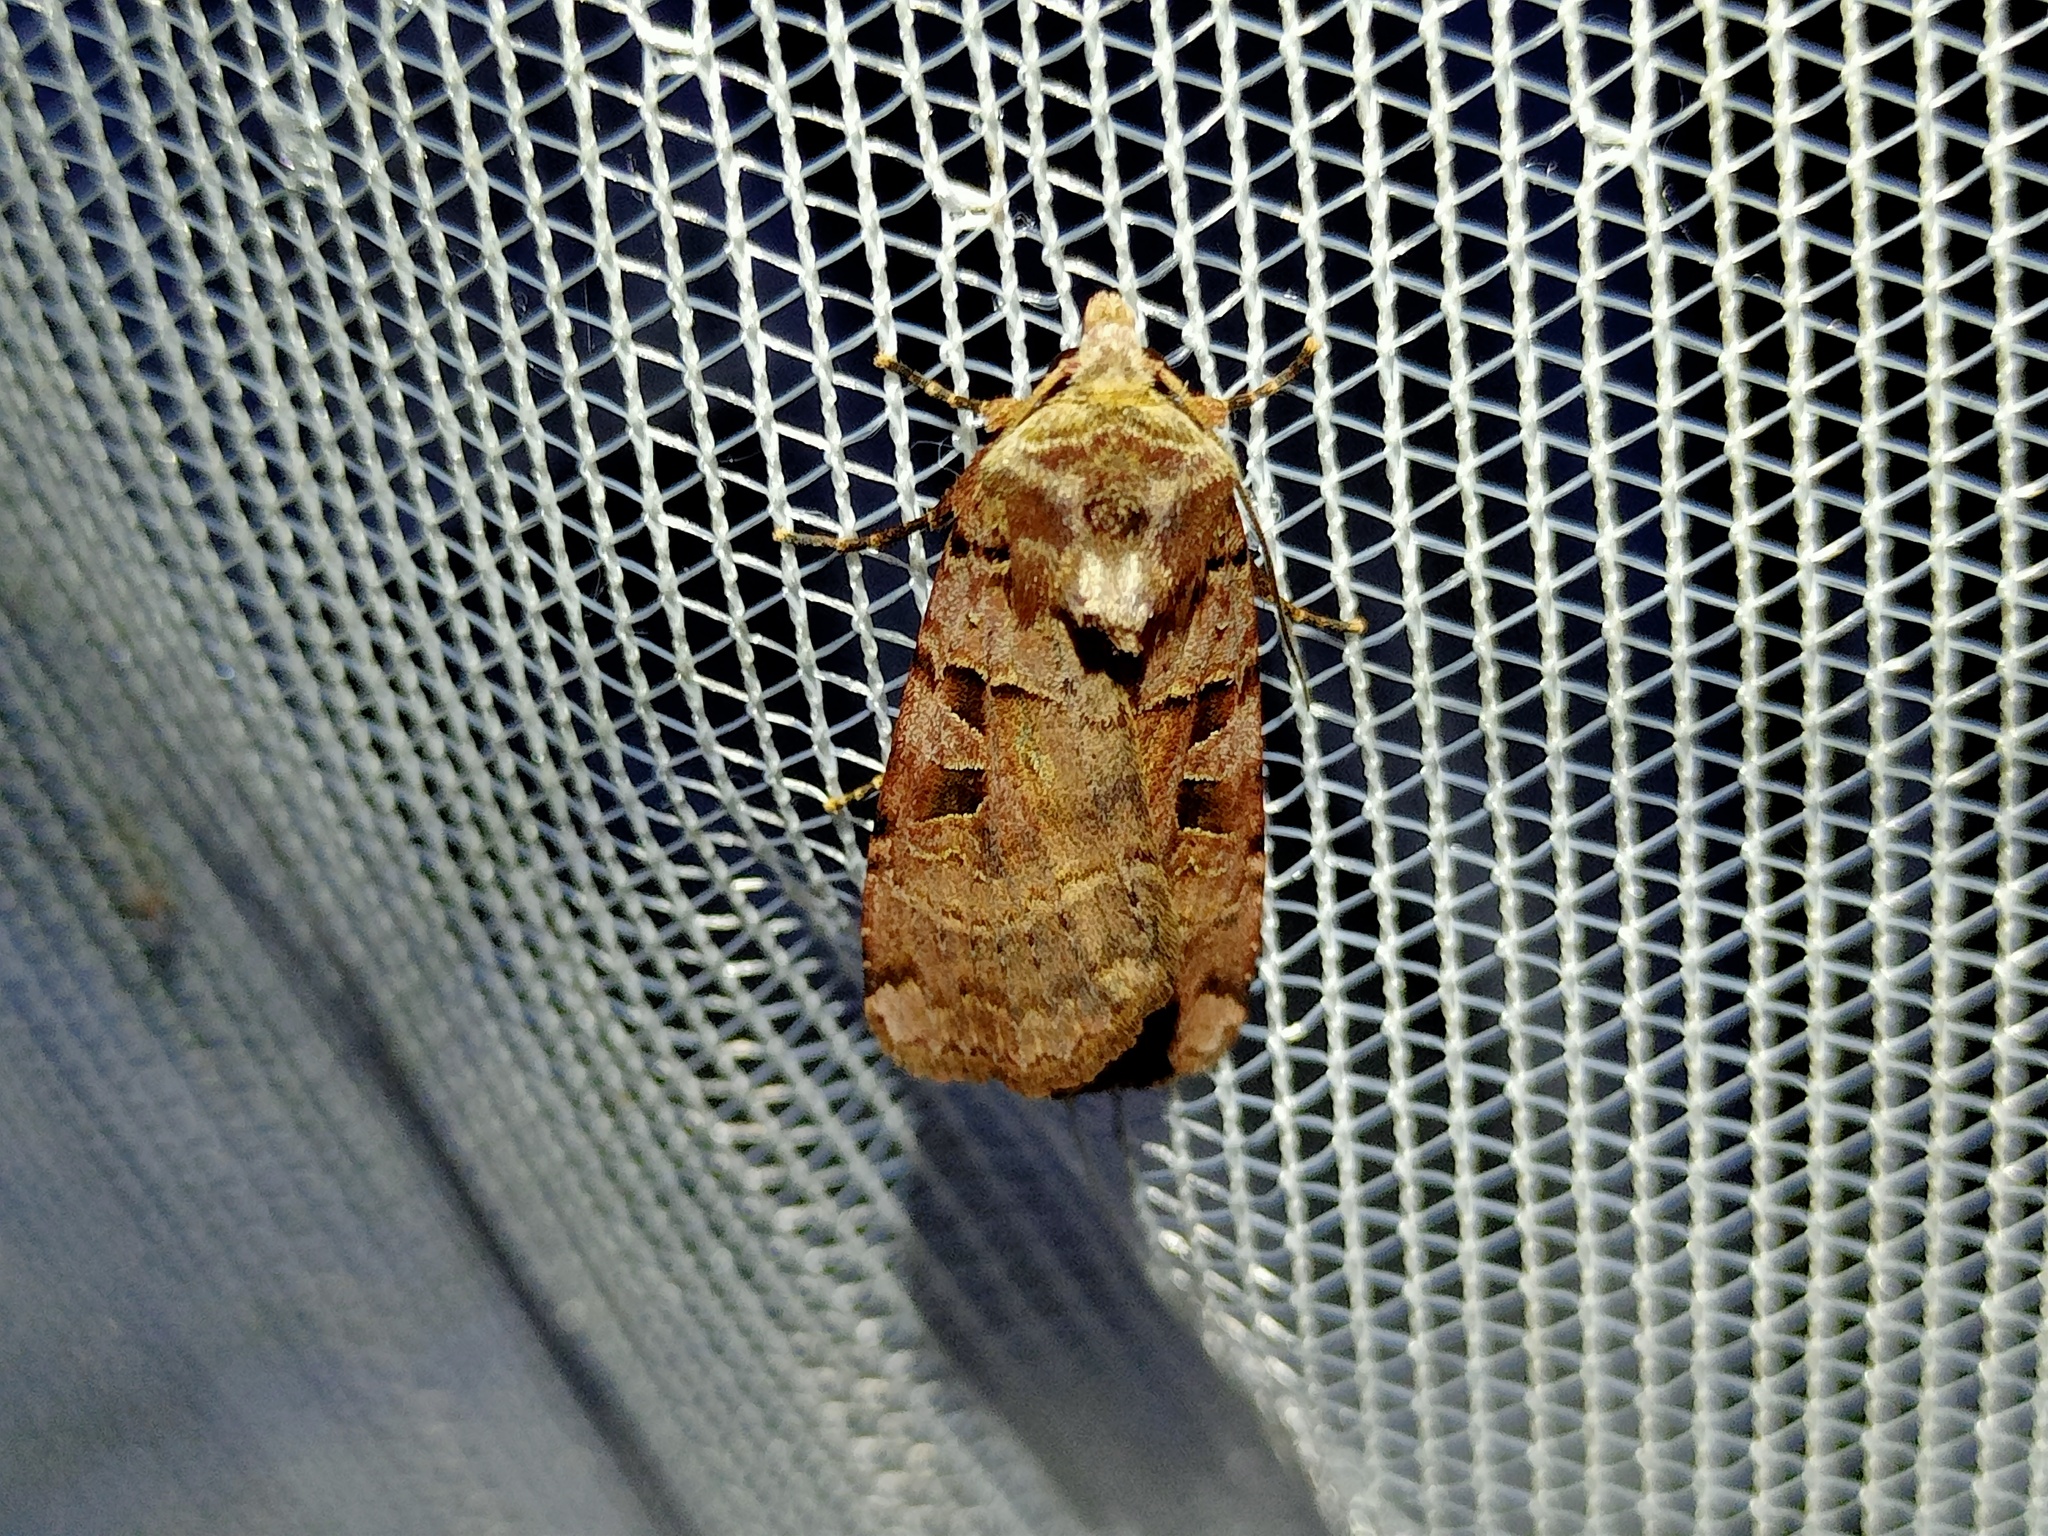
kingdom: Animalia
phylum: Arthropoda
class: Insecta
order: Lepidoptera
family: Noctuidae
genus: Xestia
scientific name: Xestia triangulum
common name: Double square-spot
